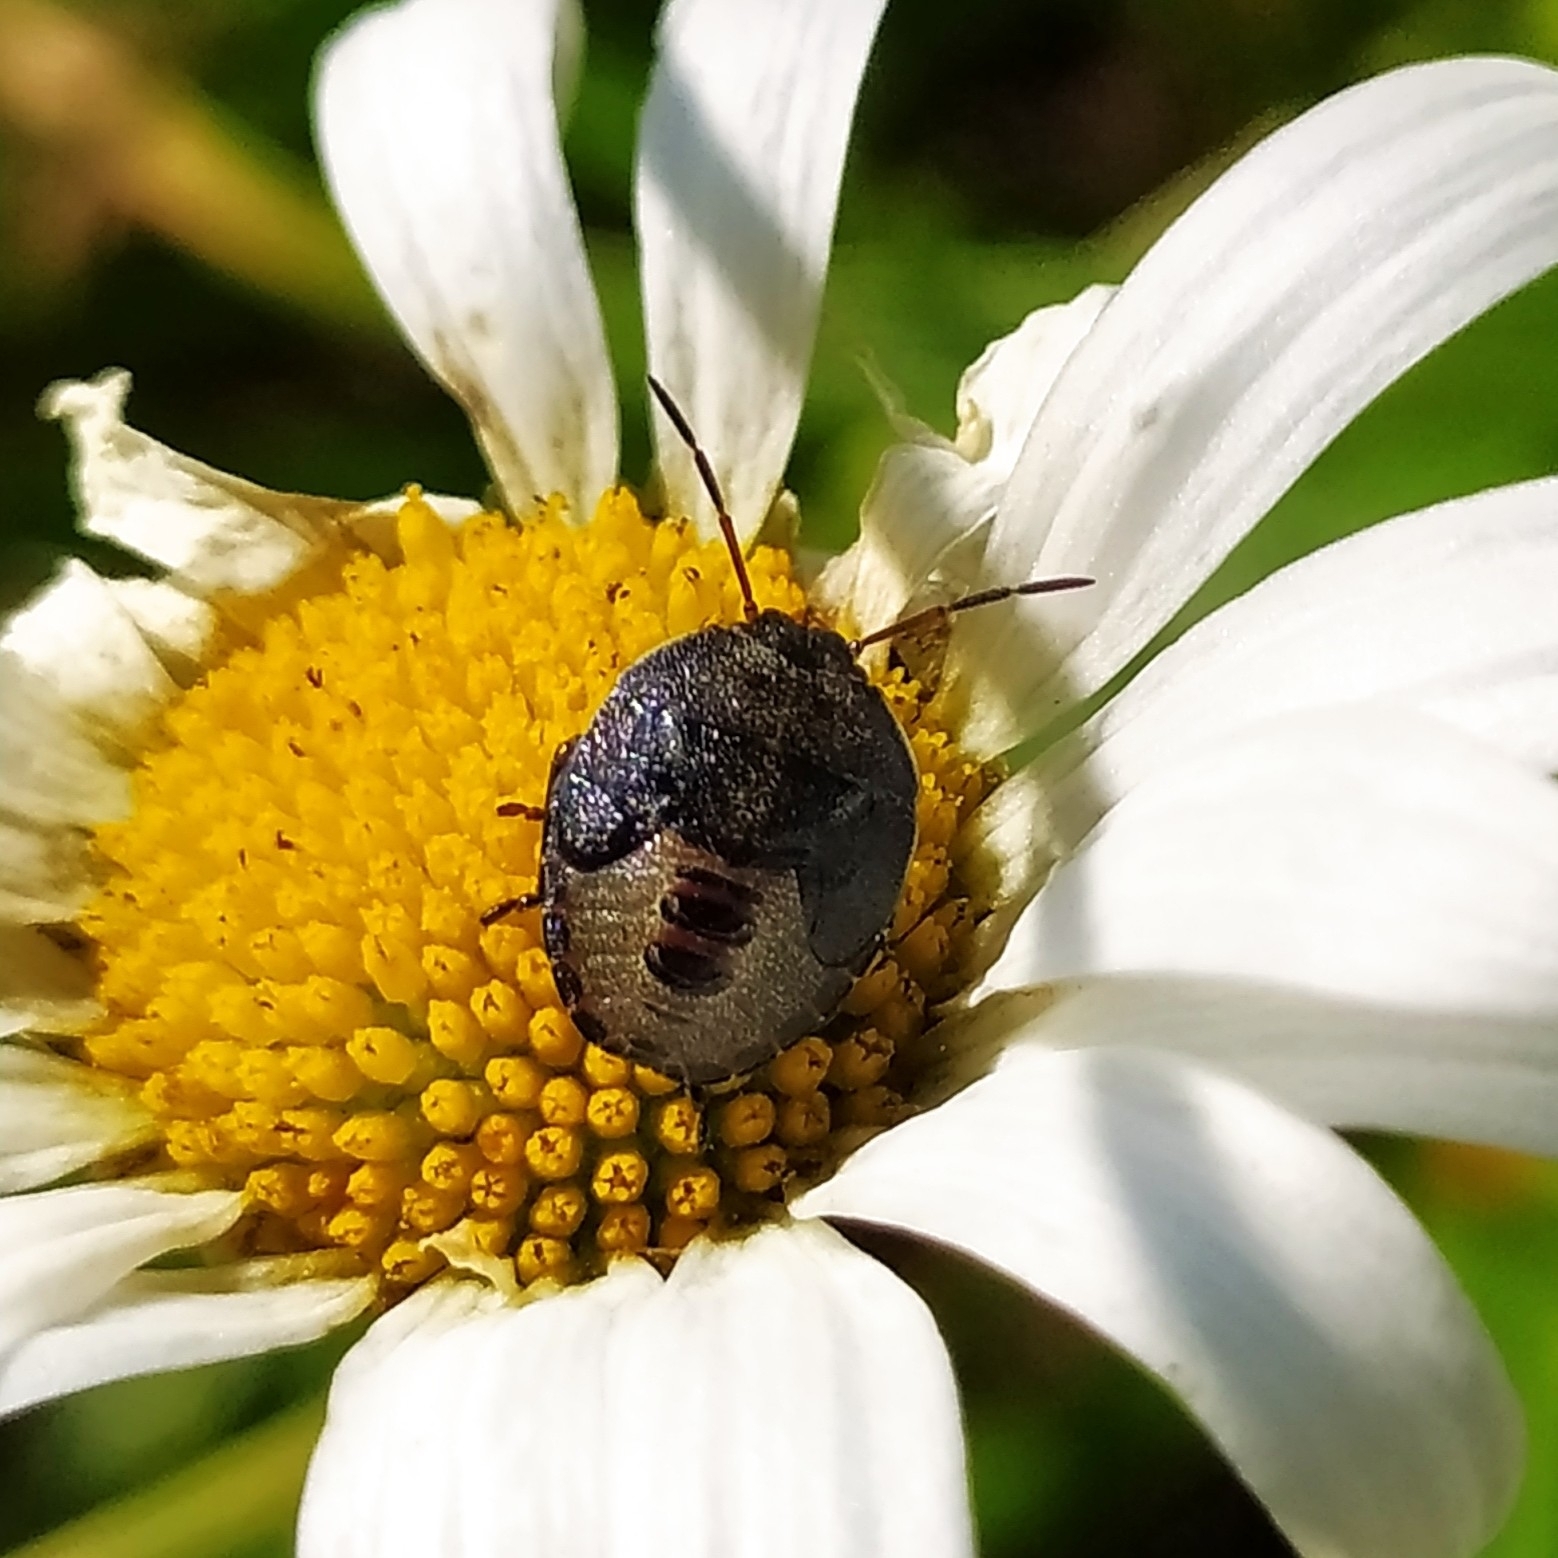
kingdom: Animalia
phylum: Arthropoda
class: Insecta
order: Hemiptera
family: Pentatomidae
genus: Piezodorus
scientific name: Piezodorus lituratus
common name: Stink bug
